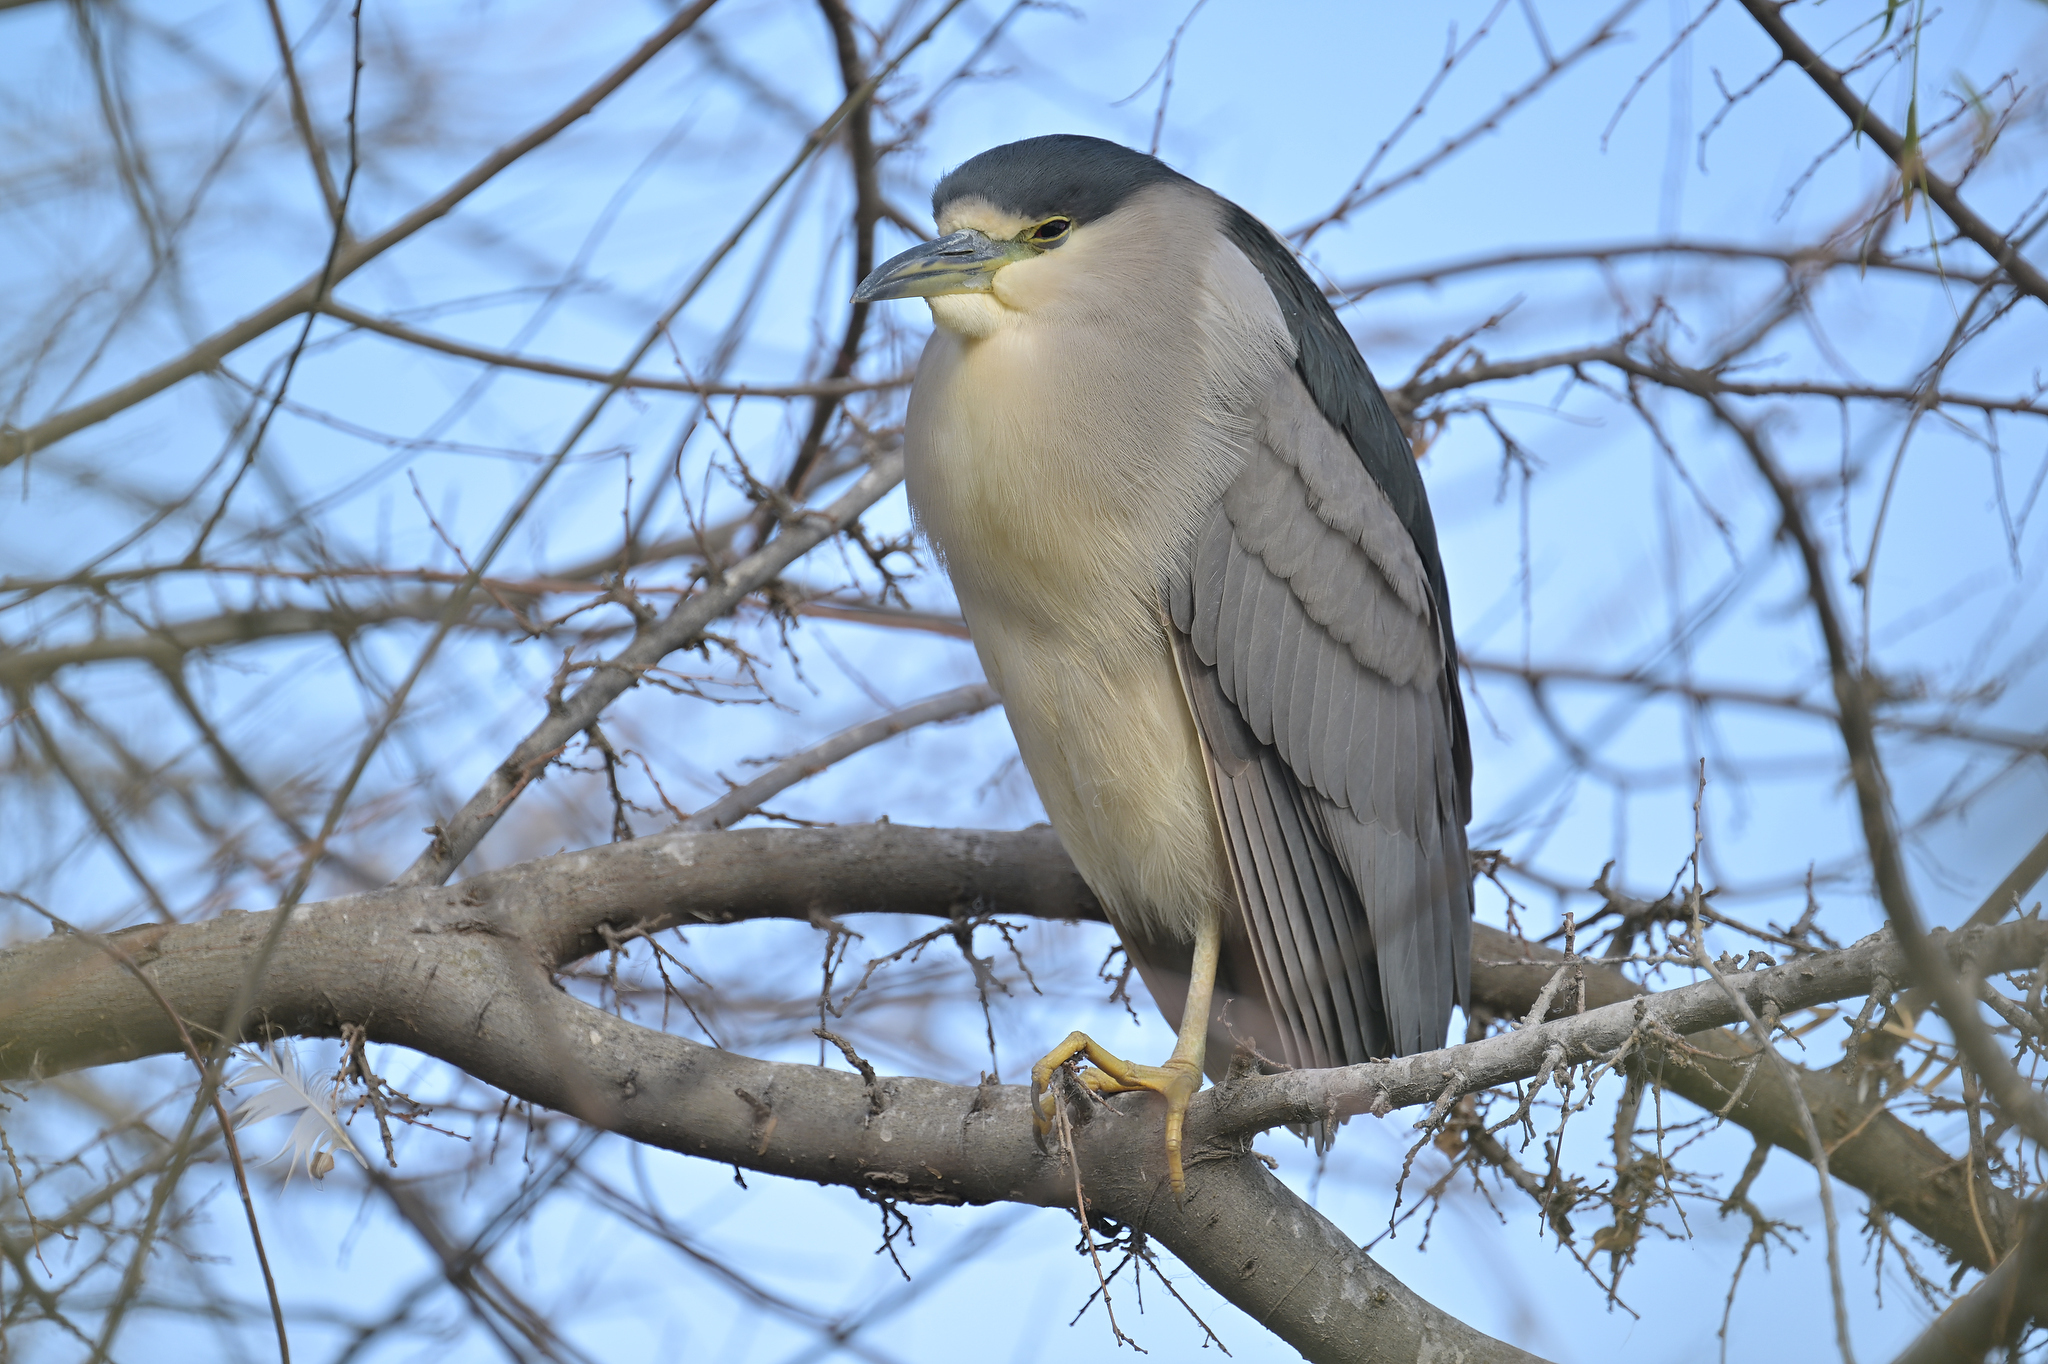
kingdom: Animalia
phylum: Chordata
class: Aves
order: Pelecaniformes
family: Ardeidae
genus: Nycticorax
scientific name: Nycticorax nycticorax
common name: Black-crowned night heron
